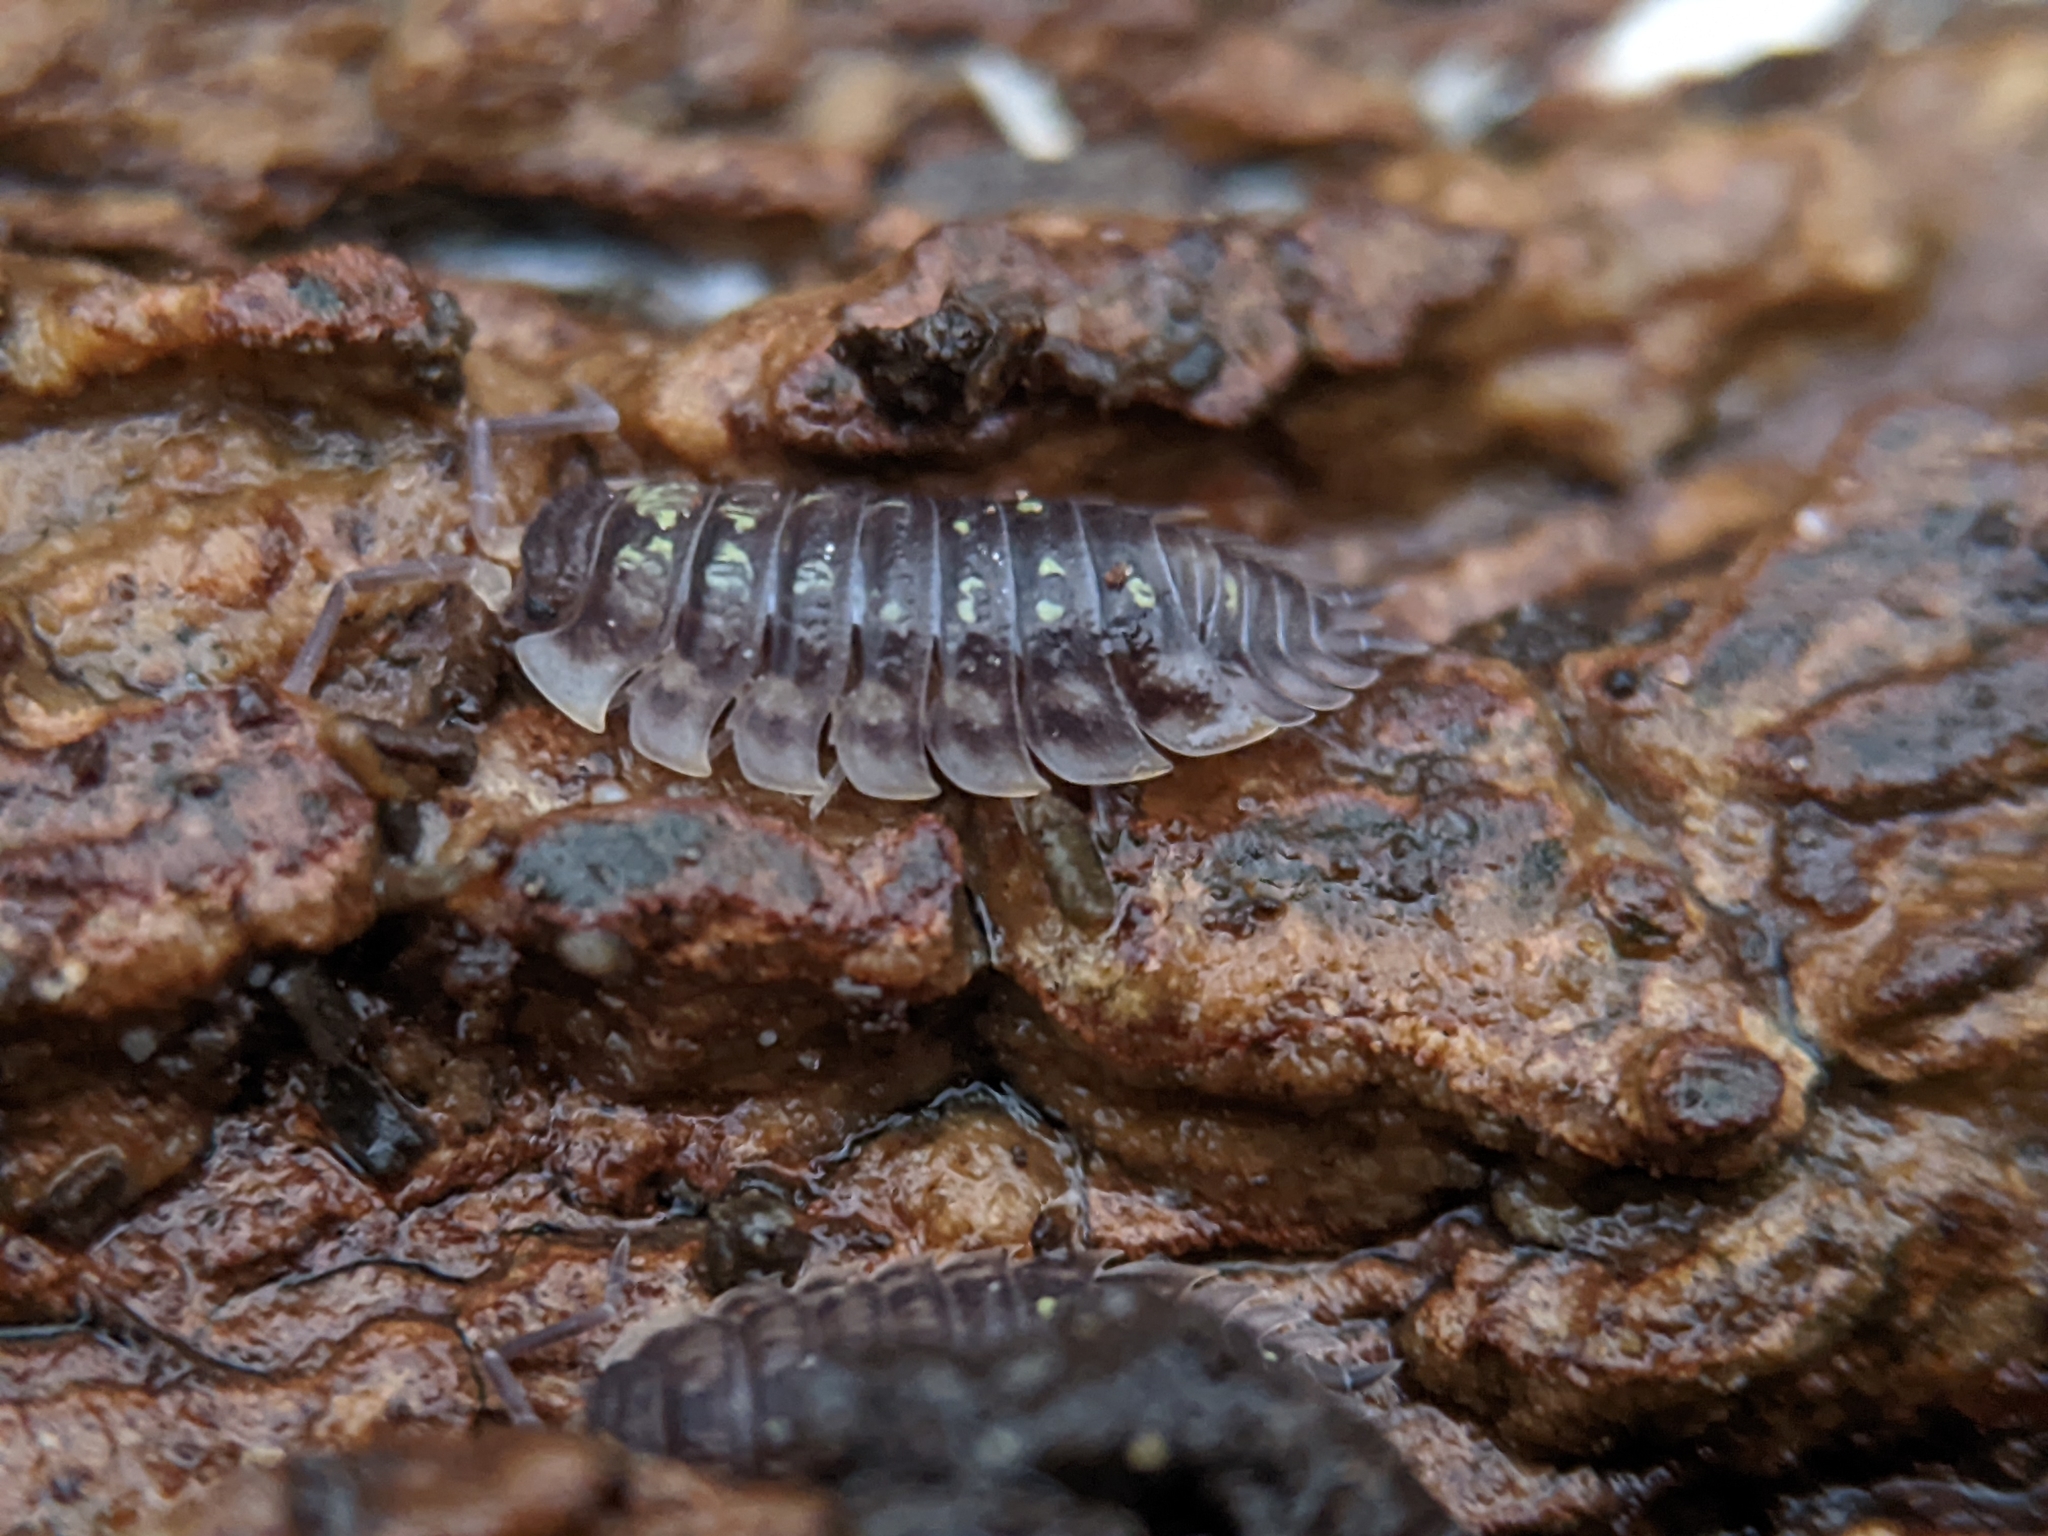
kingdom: Animalia
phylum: Arthropoda
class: Malacostraca
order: Isopoda
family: Oniscidae
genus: Oniscus
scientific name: Oniscus asellus
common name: Common shiny woodlouse
